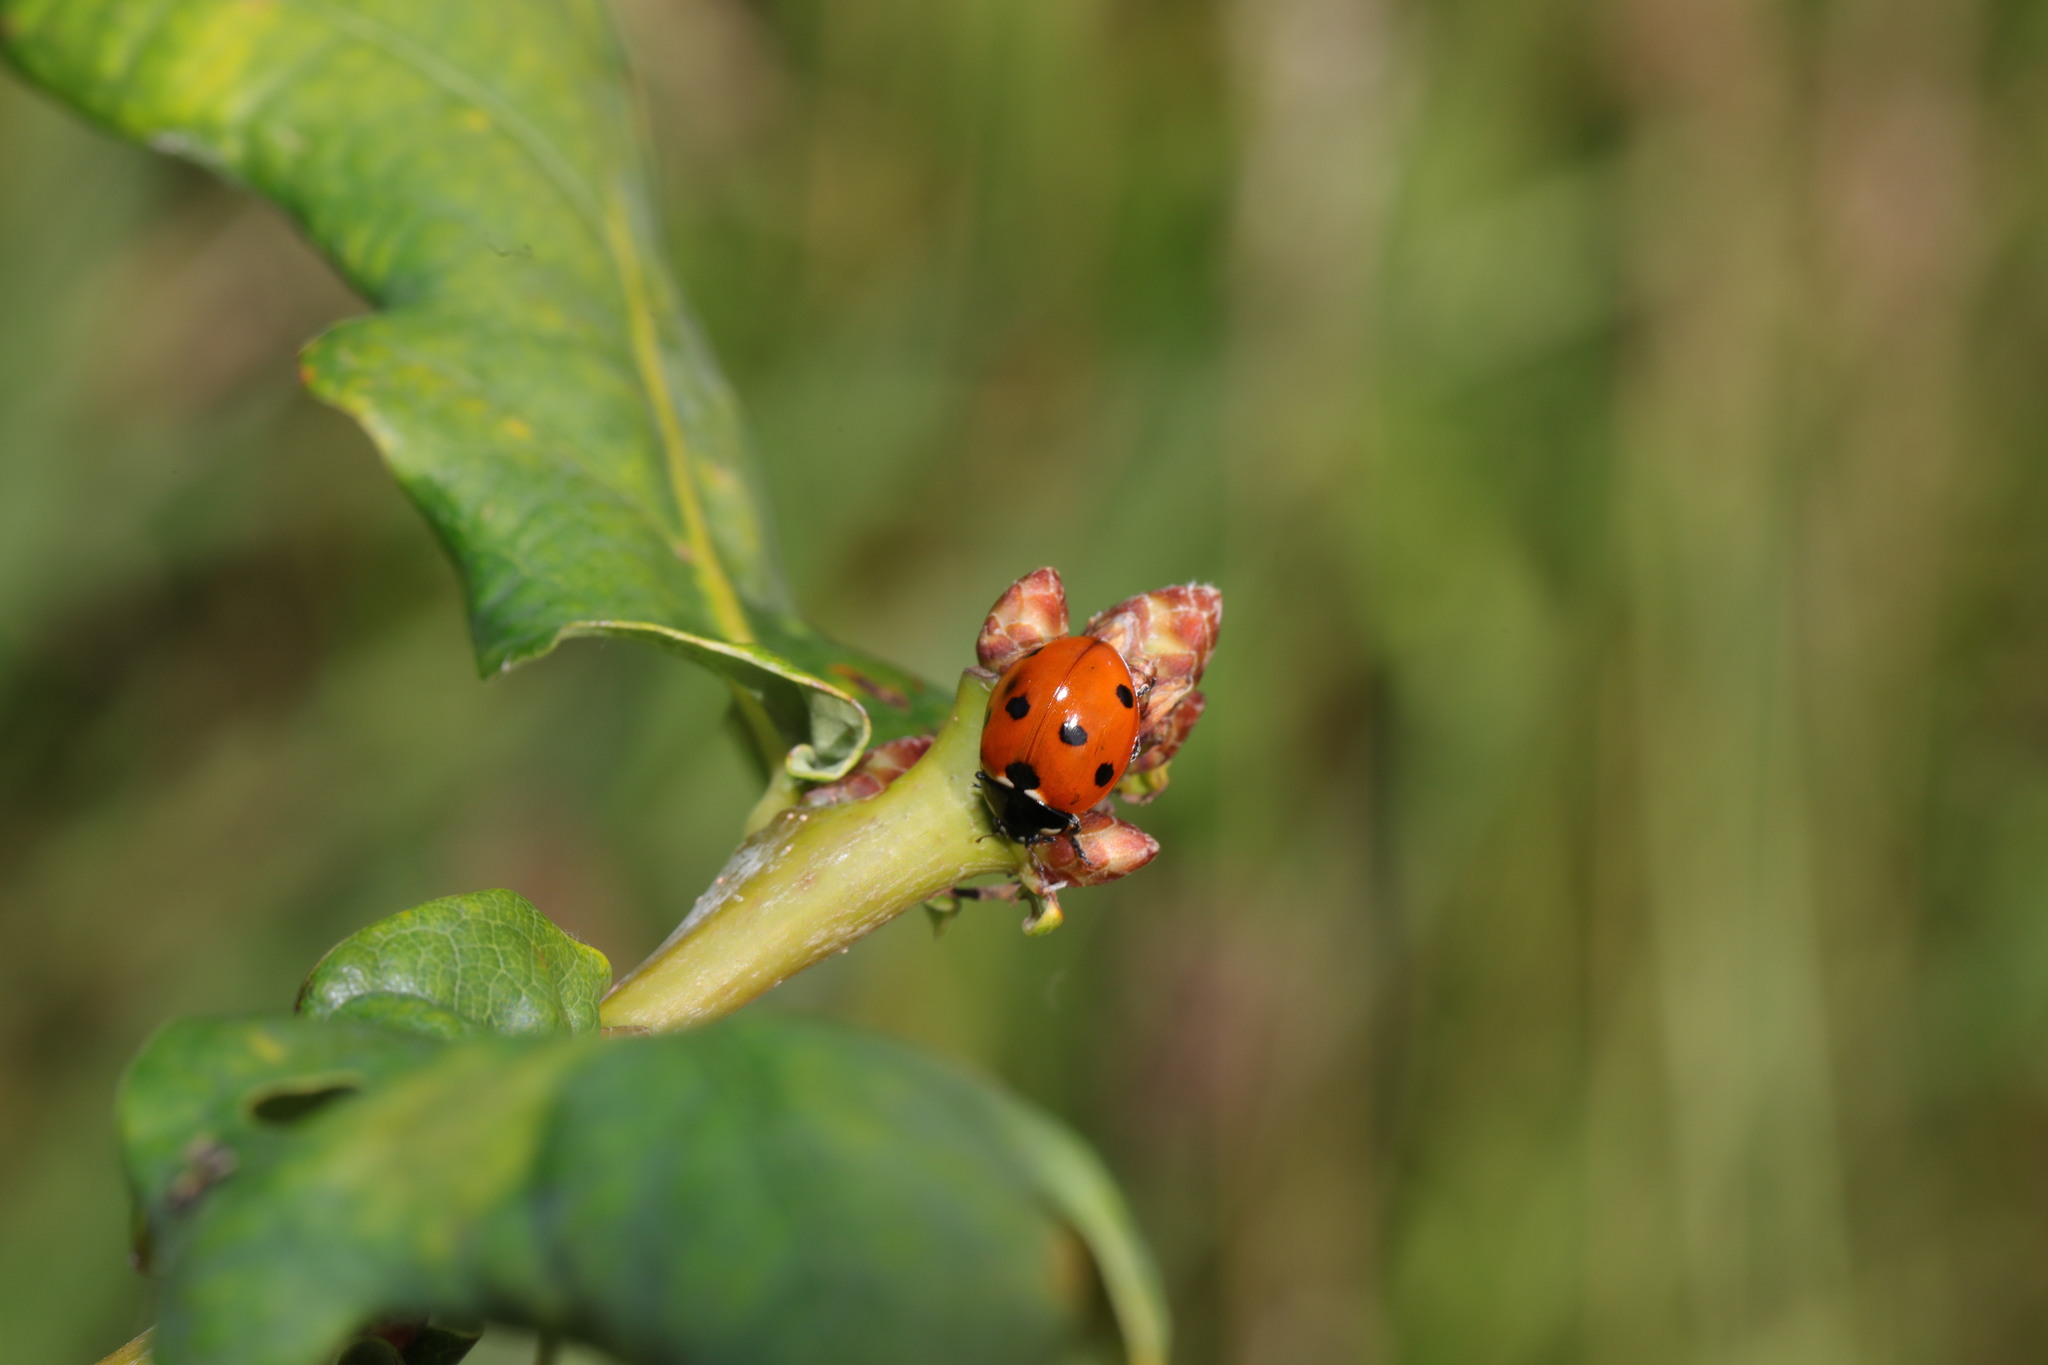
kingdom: Animalia
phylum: Arthropoda
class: Insecta
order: Coleoptera
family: Coccinellidae
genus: Coccinella
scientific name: Coccinella septempunctata
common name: Sevenspotted lady beetle
